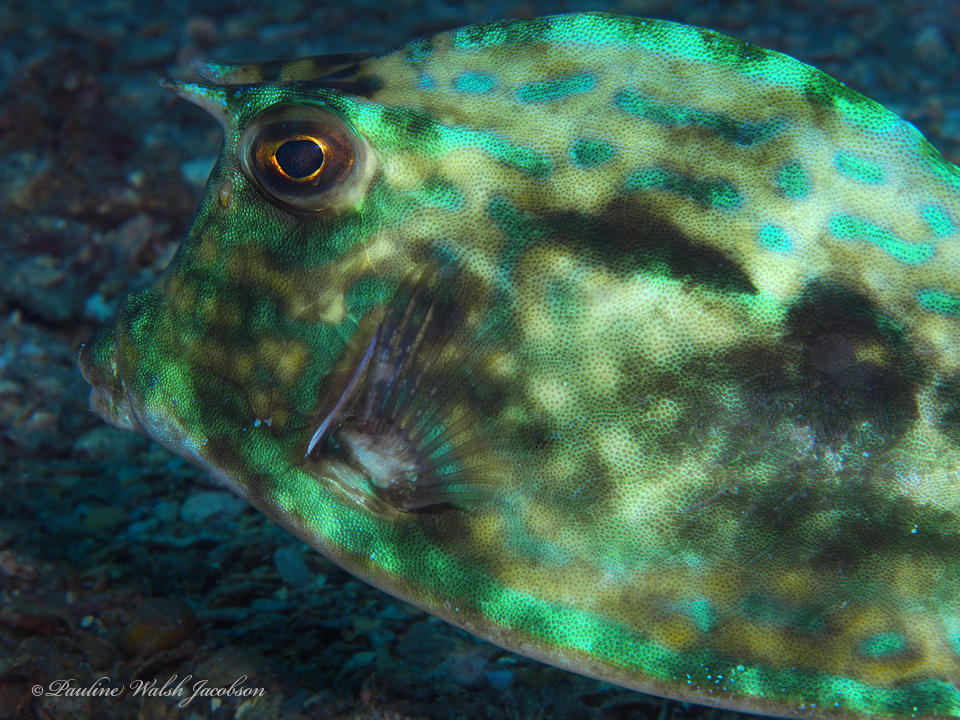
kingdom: Animalia
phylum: Chordata
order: Tetraodontiformes
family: Ostraciidae
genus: Acanthostracion
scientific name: Acanthostracion quadricornis
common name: Scrawled cowfish
